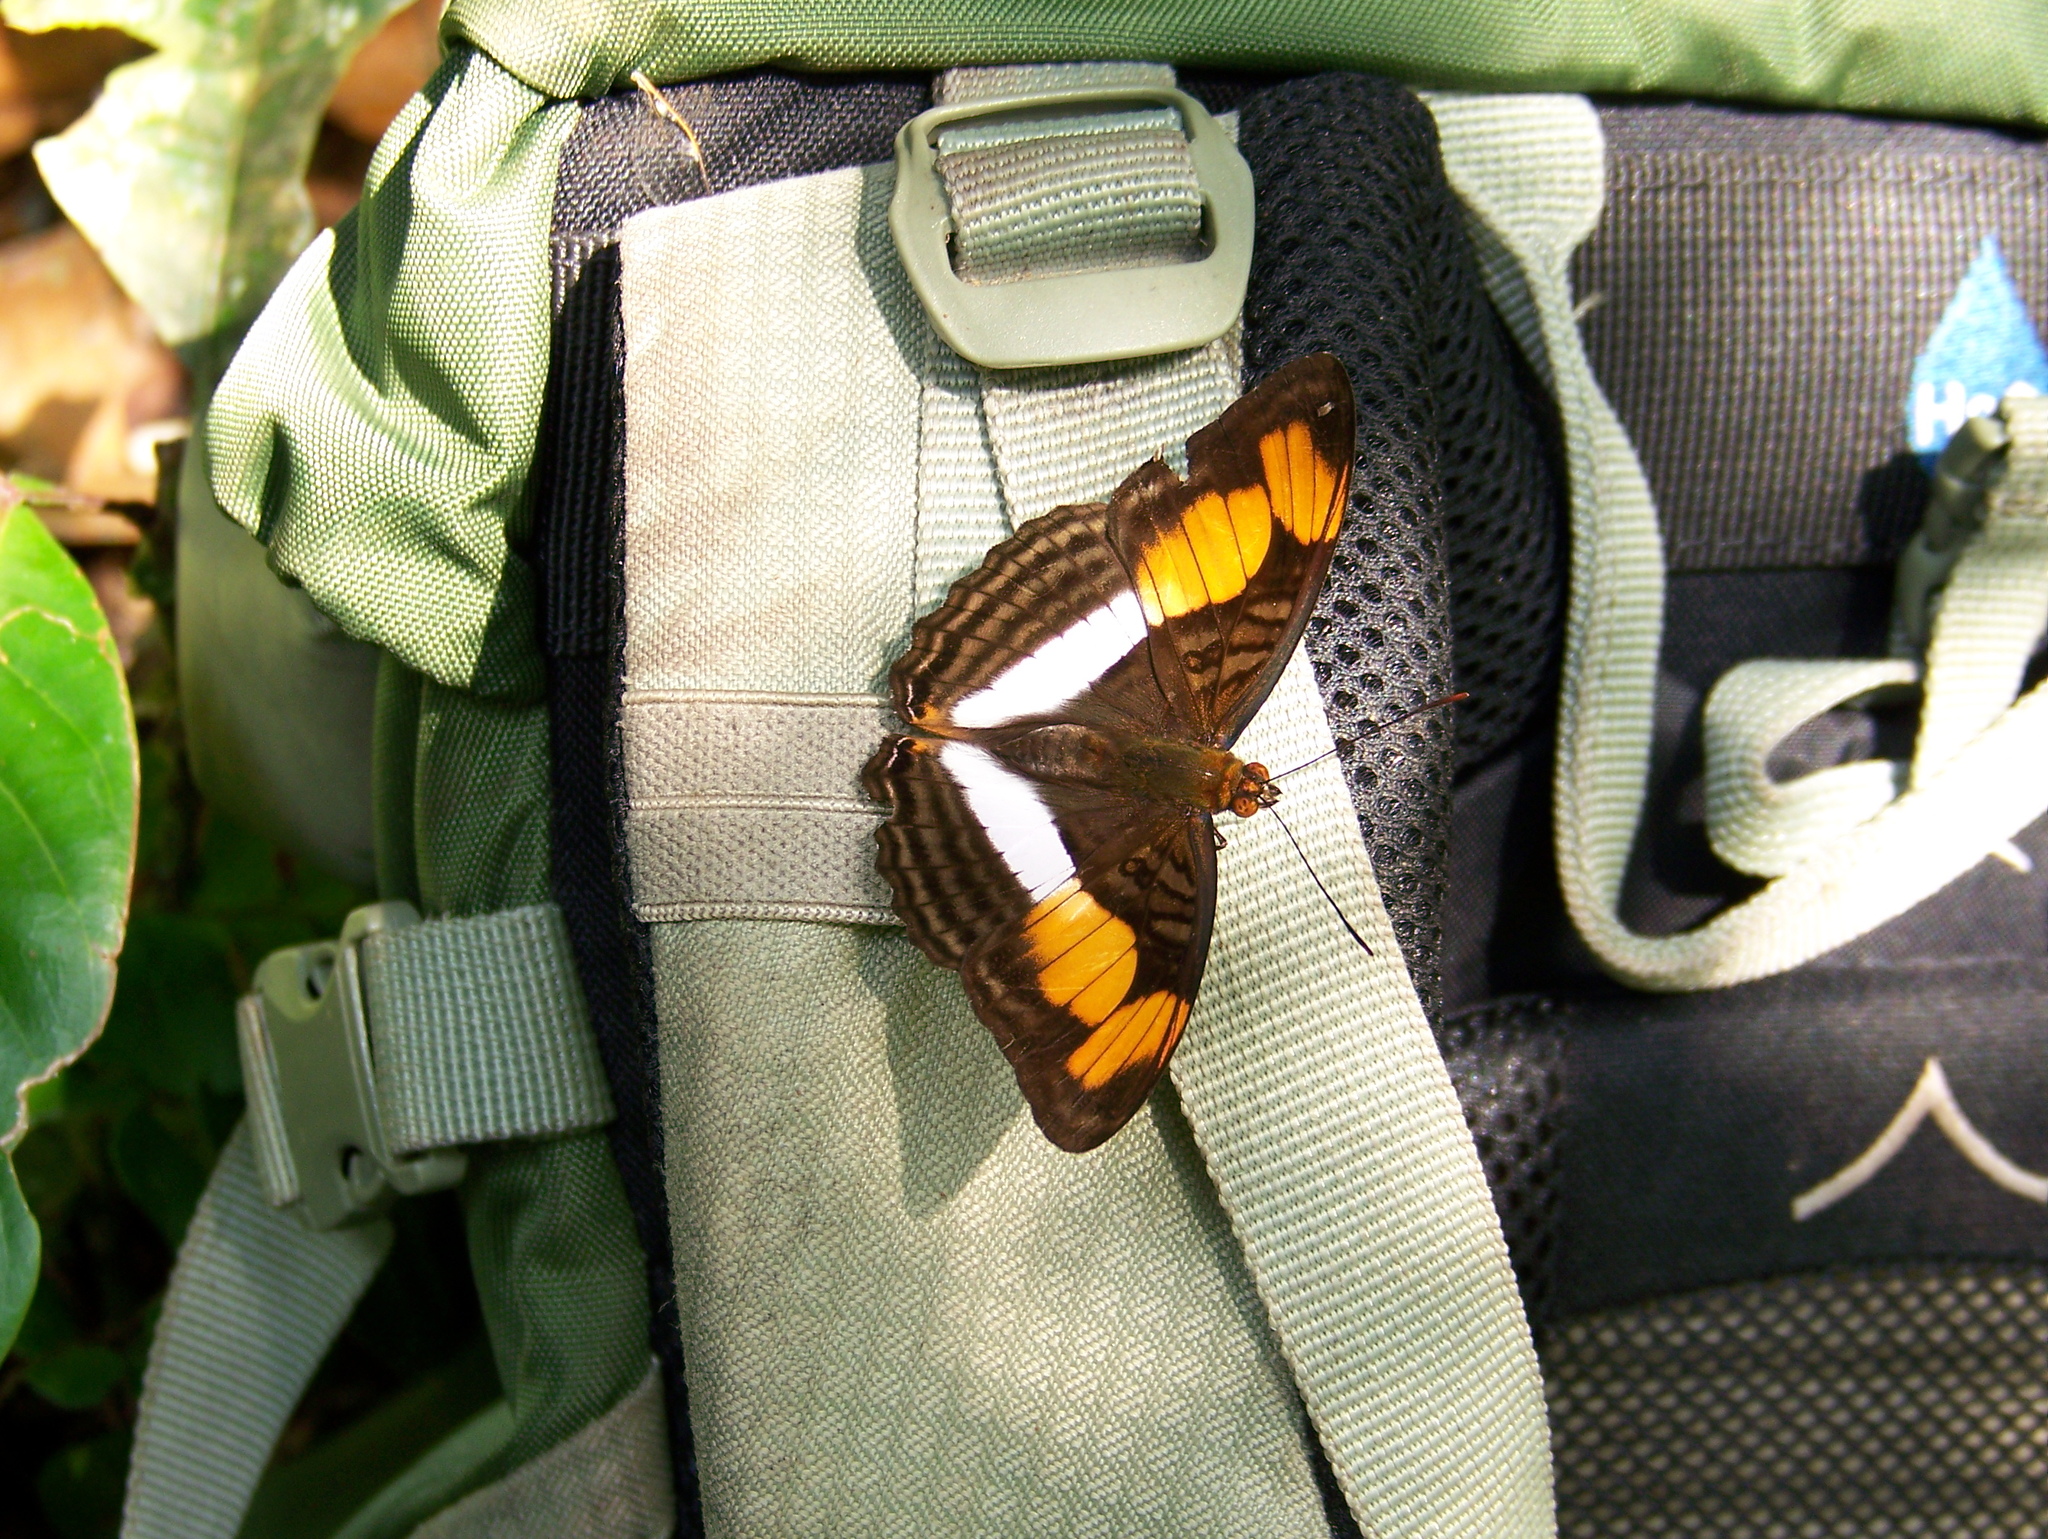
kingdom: Animalia
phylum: Arthropoda
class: Insecta
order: Lepidoptera
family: Nymphalidae
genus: Doxocopa
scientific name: Doxocopa laure
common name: Silver emperor
